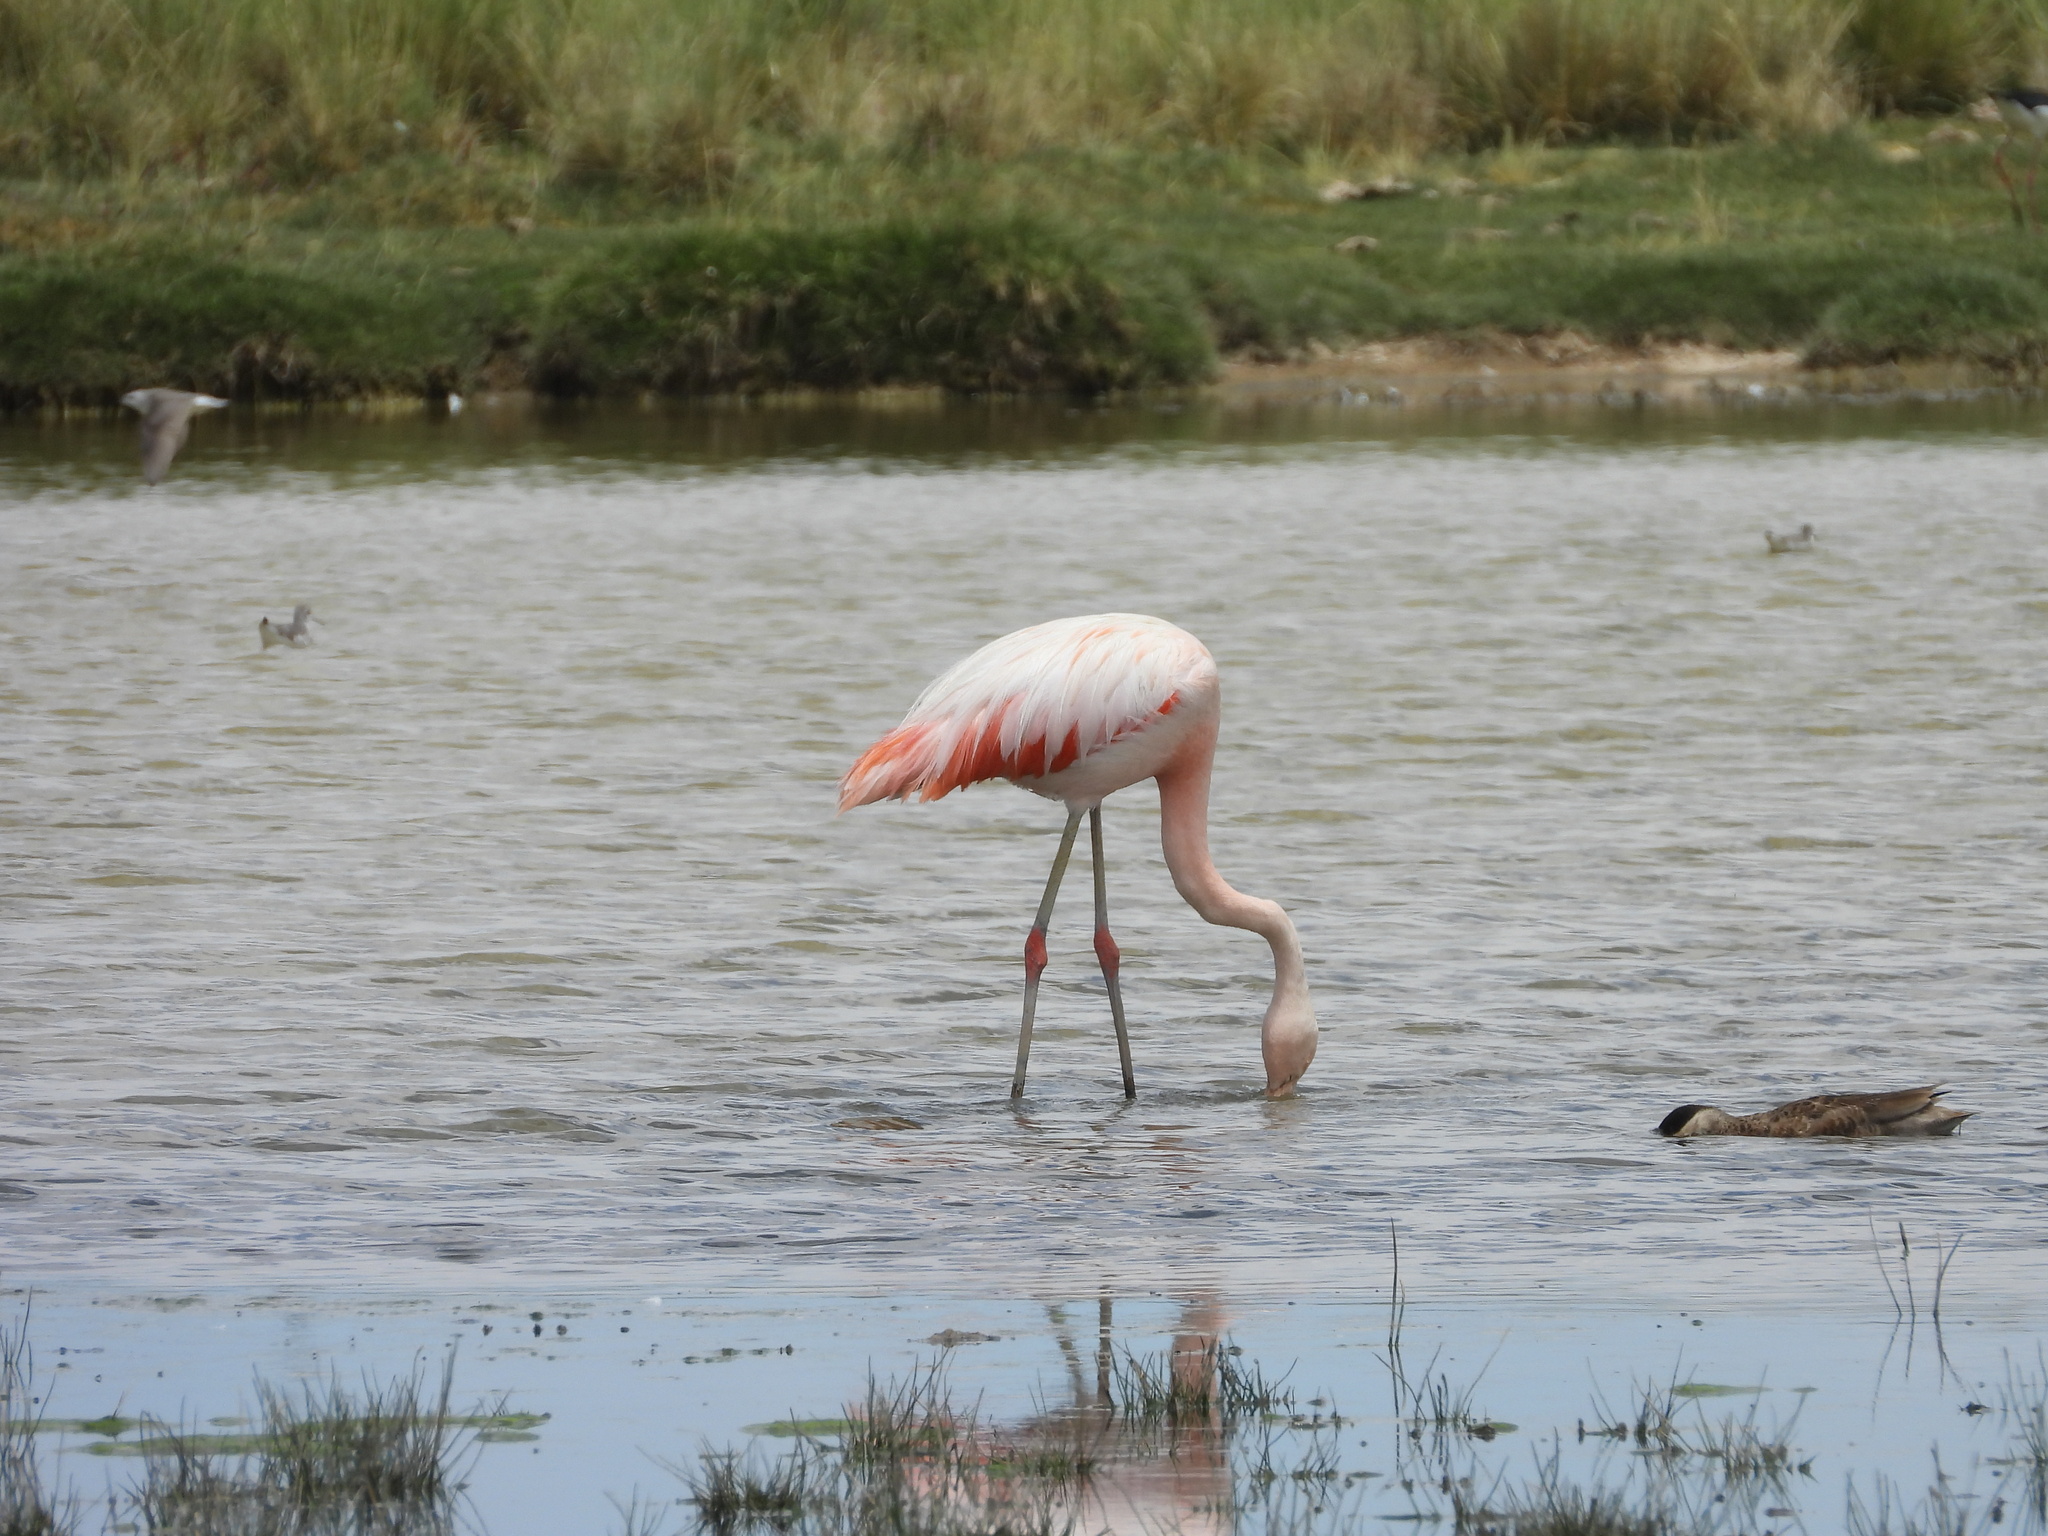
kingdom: Animalia
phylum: Chordata
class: Aves
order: Phoenicopteriformes
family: Phoenicopteridae
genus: Phoenicopterus
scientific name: Phoenicopterus chilensis
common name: Chilean flamingo
